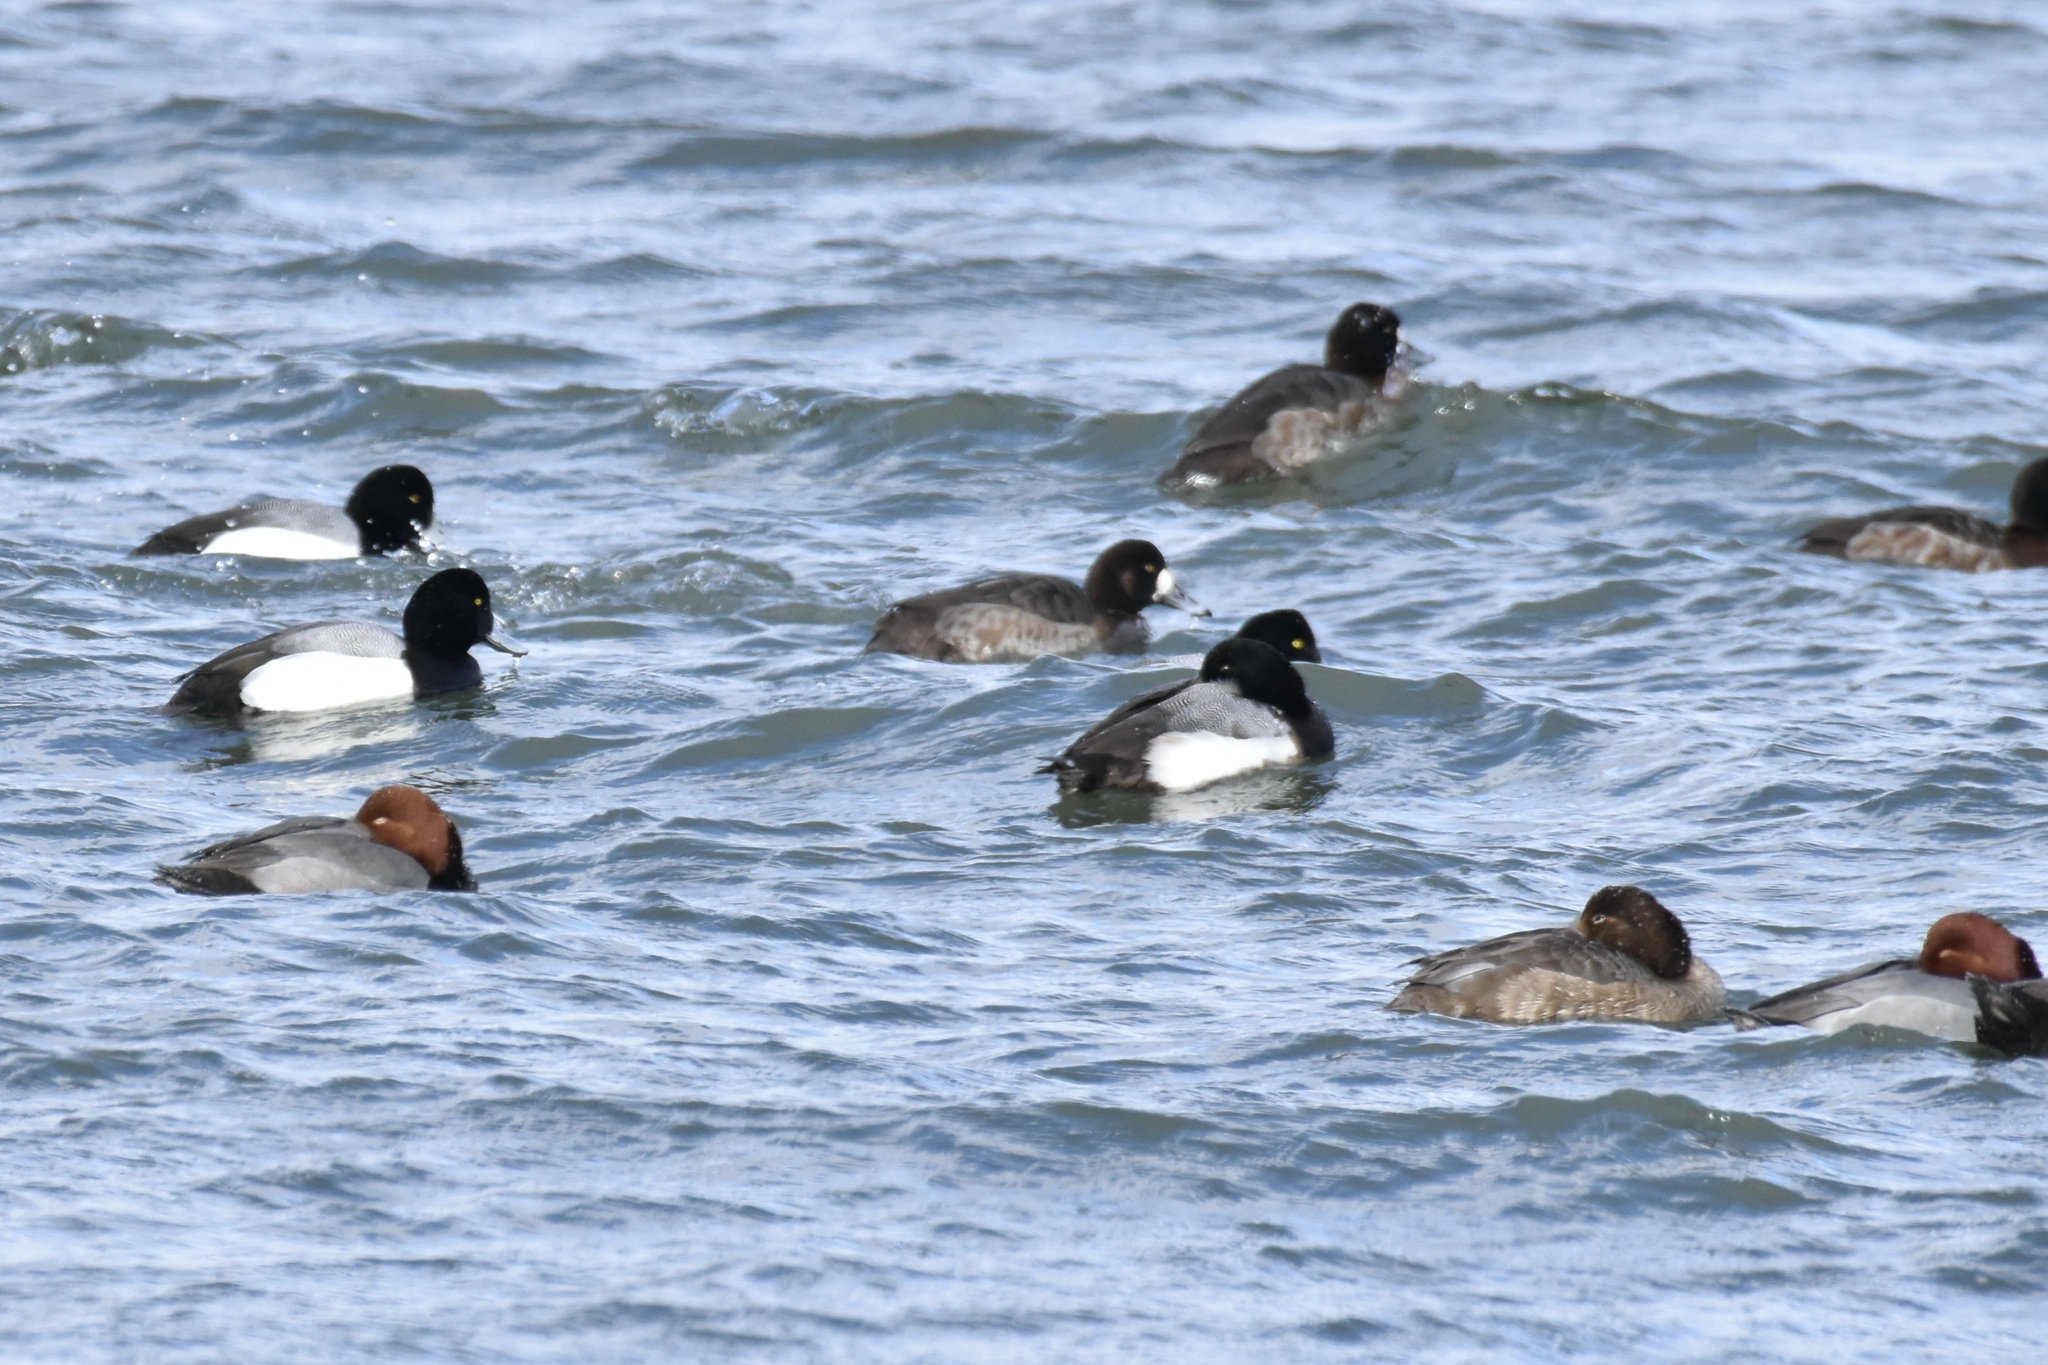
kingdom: Animalia
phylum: Chordata
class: Aves
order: Anseriformes
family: Anatidae
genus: Aythya
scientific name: Aythya marila
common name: Greater scaup
